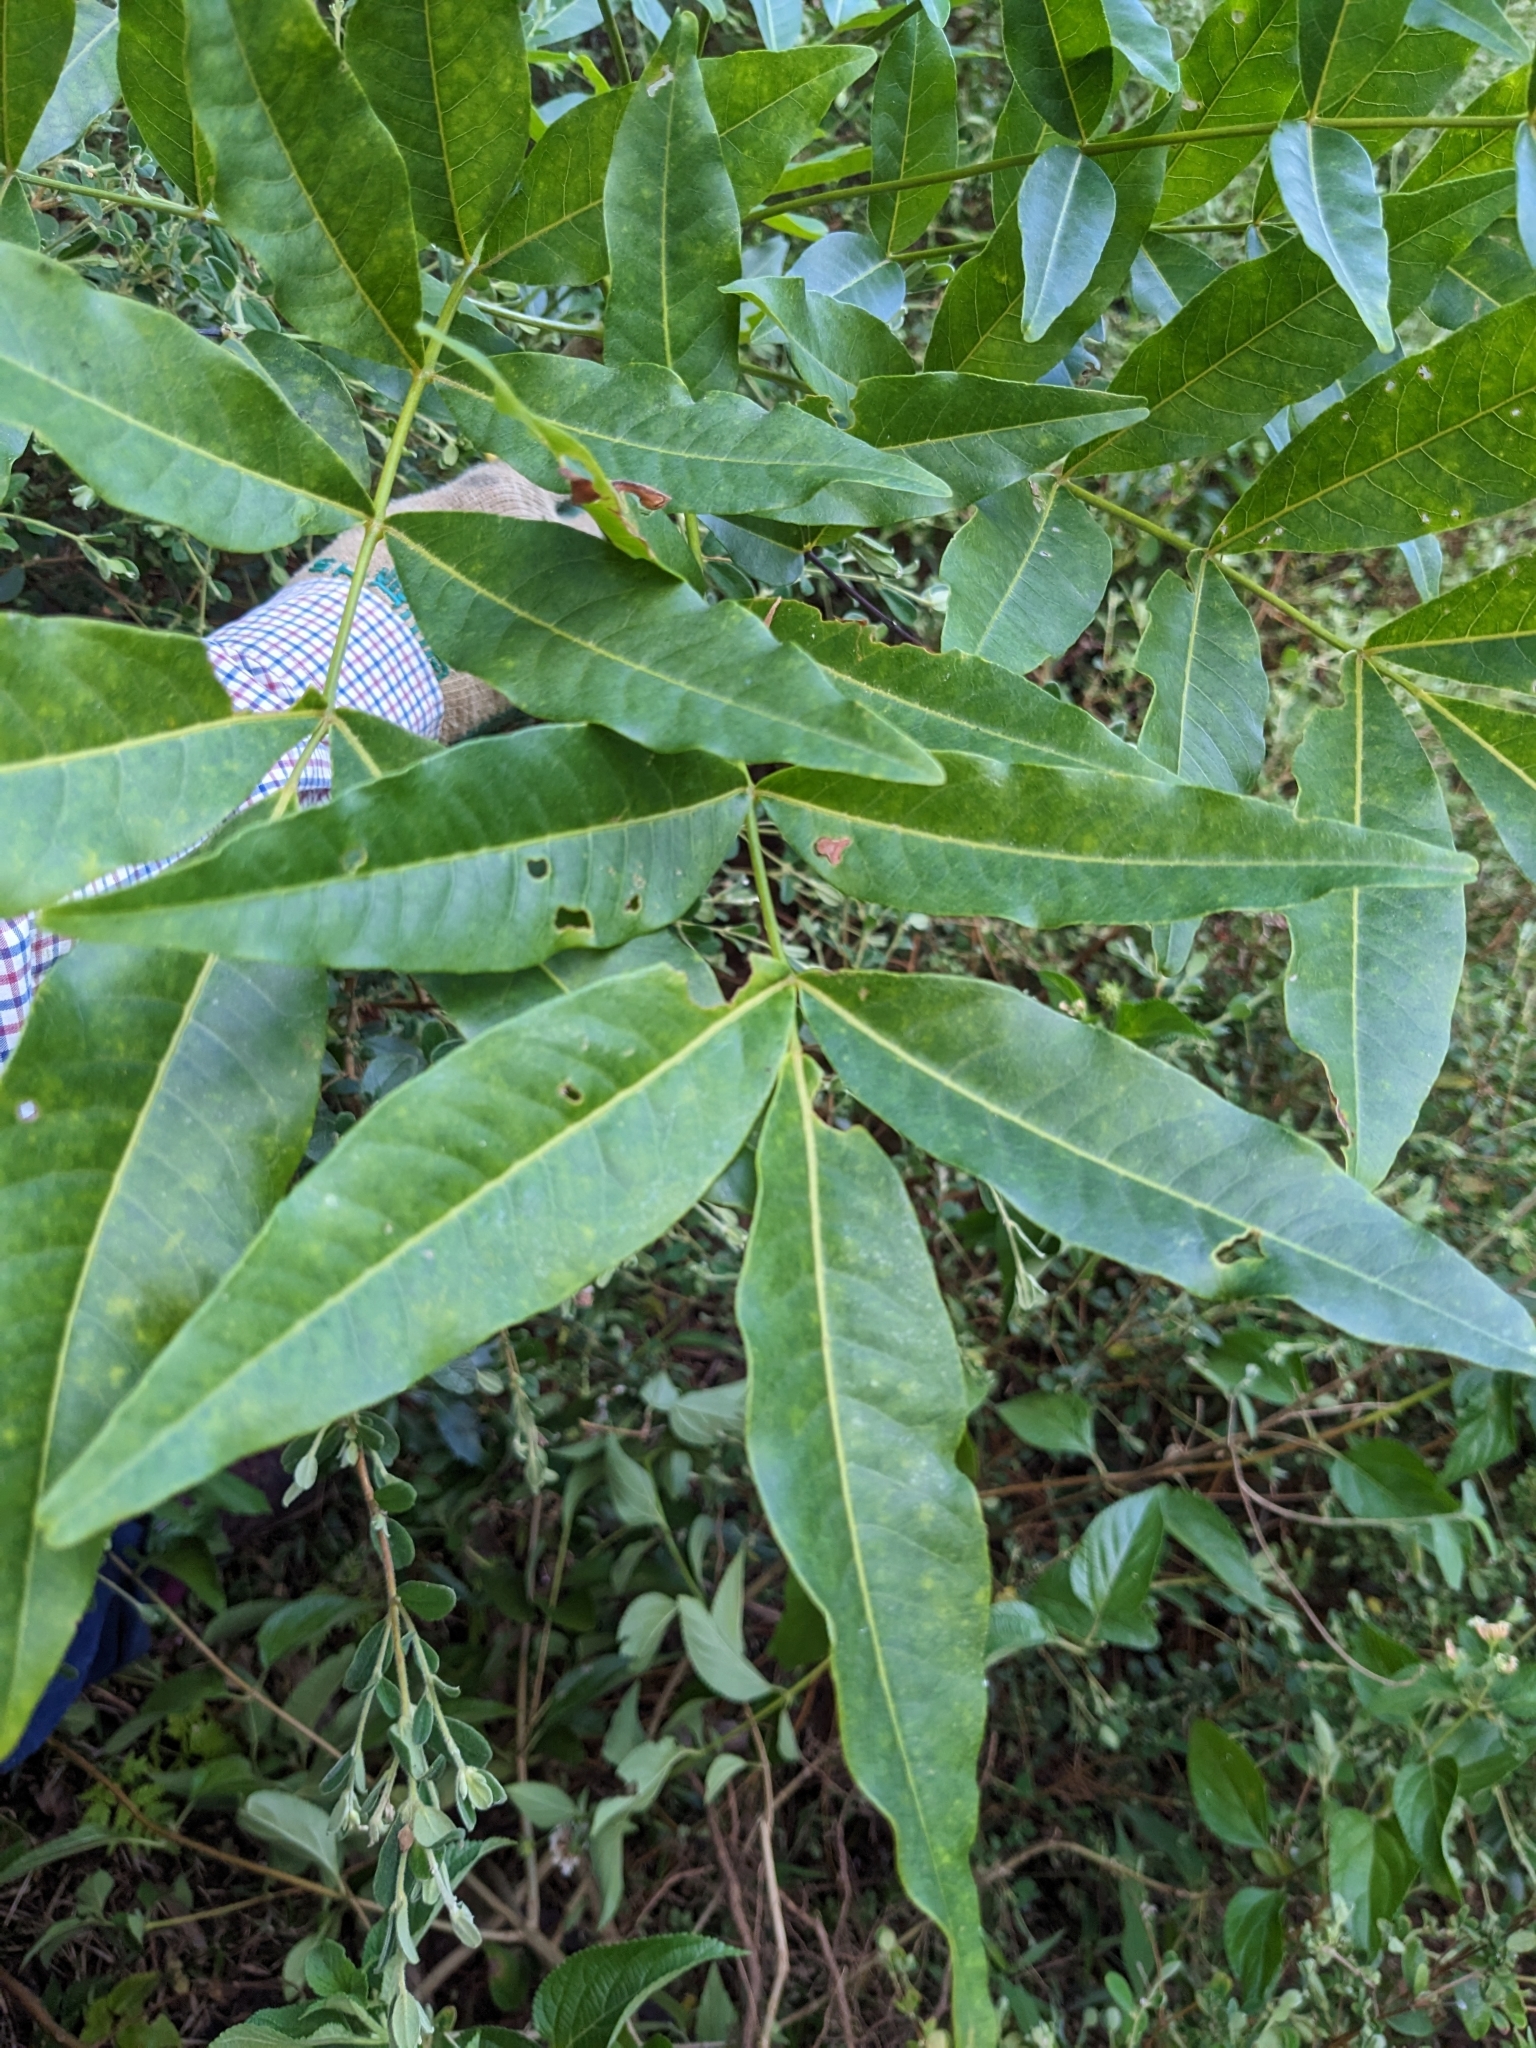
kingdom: Plantae
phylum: Tracheophyta
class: Magnoliopsida
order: Sapindales
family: Rutaceae
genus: Flindersia
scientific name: Flindersia australis
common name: Australian-teak
